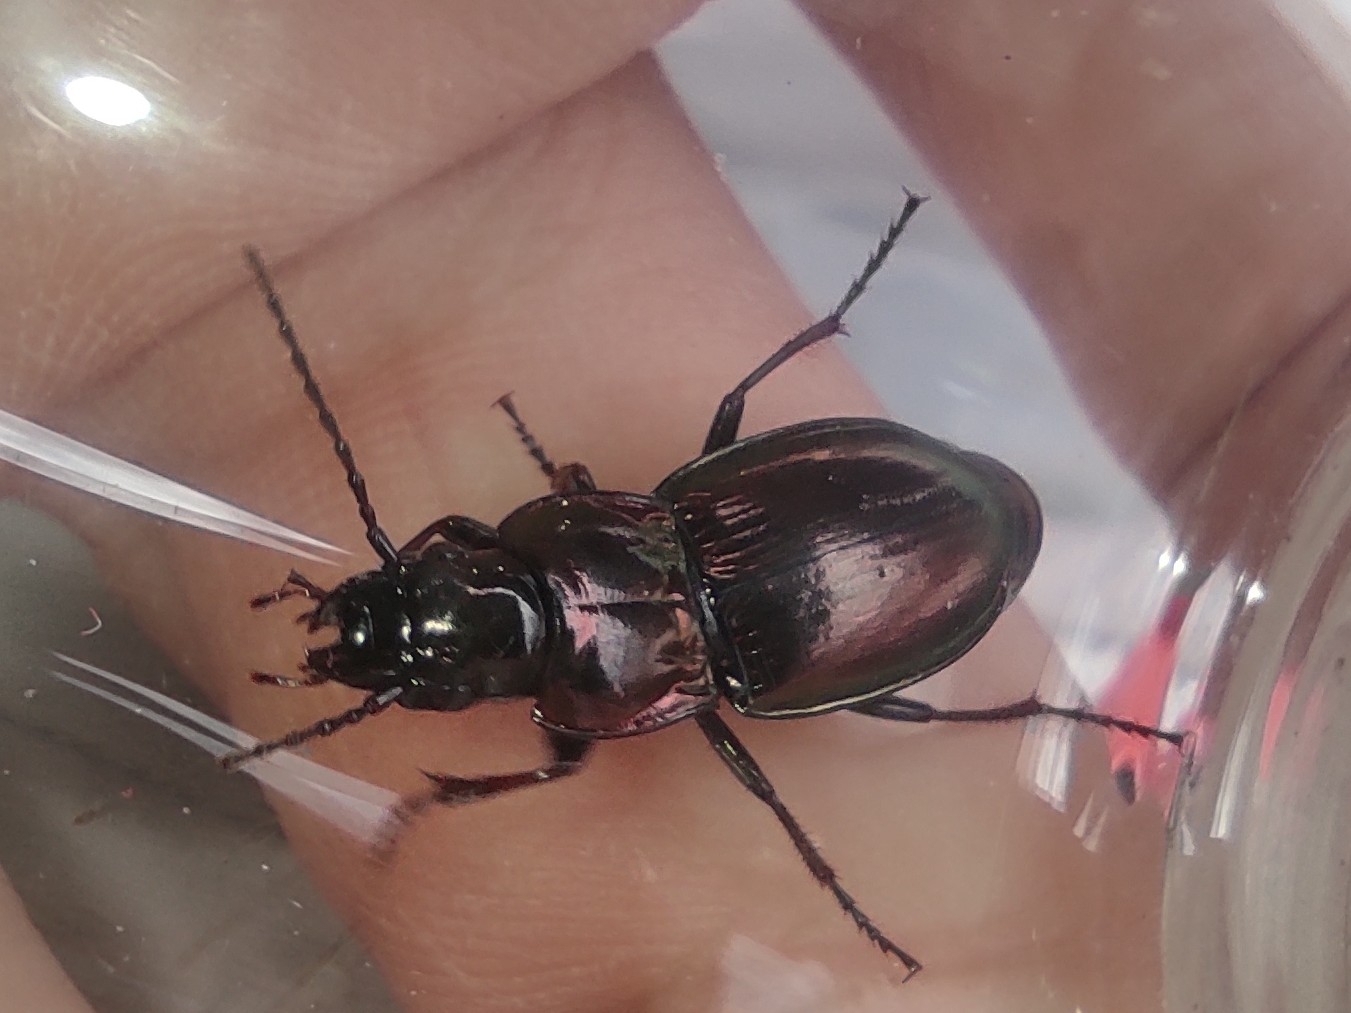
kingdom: Animalia
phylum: Arthropoda
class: Insecta
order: Coleoptera
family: Carabidae
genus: Pterostichus
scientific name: Pterostichus burmeisteri
